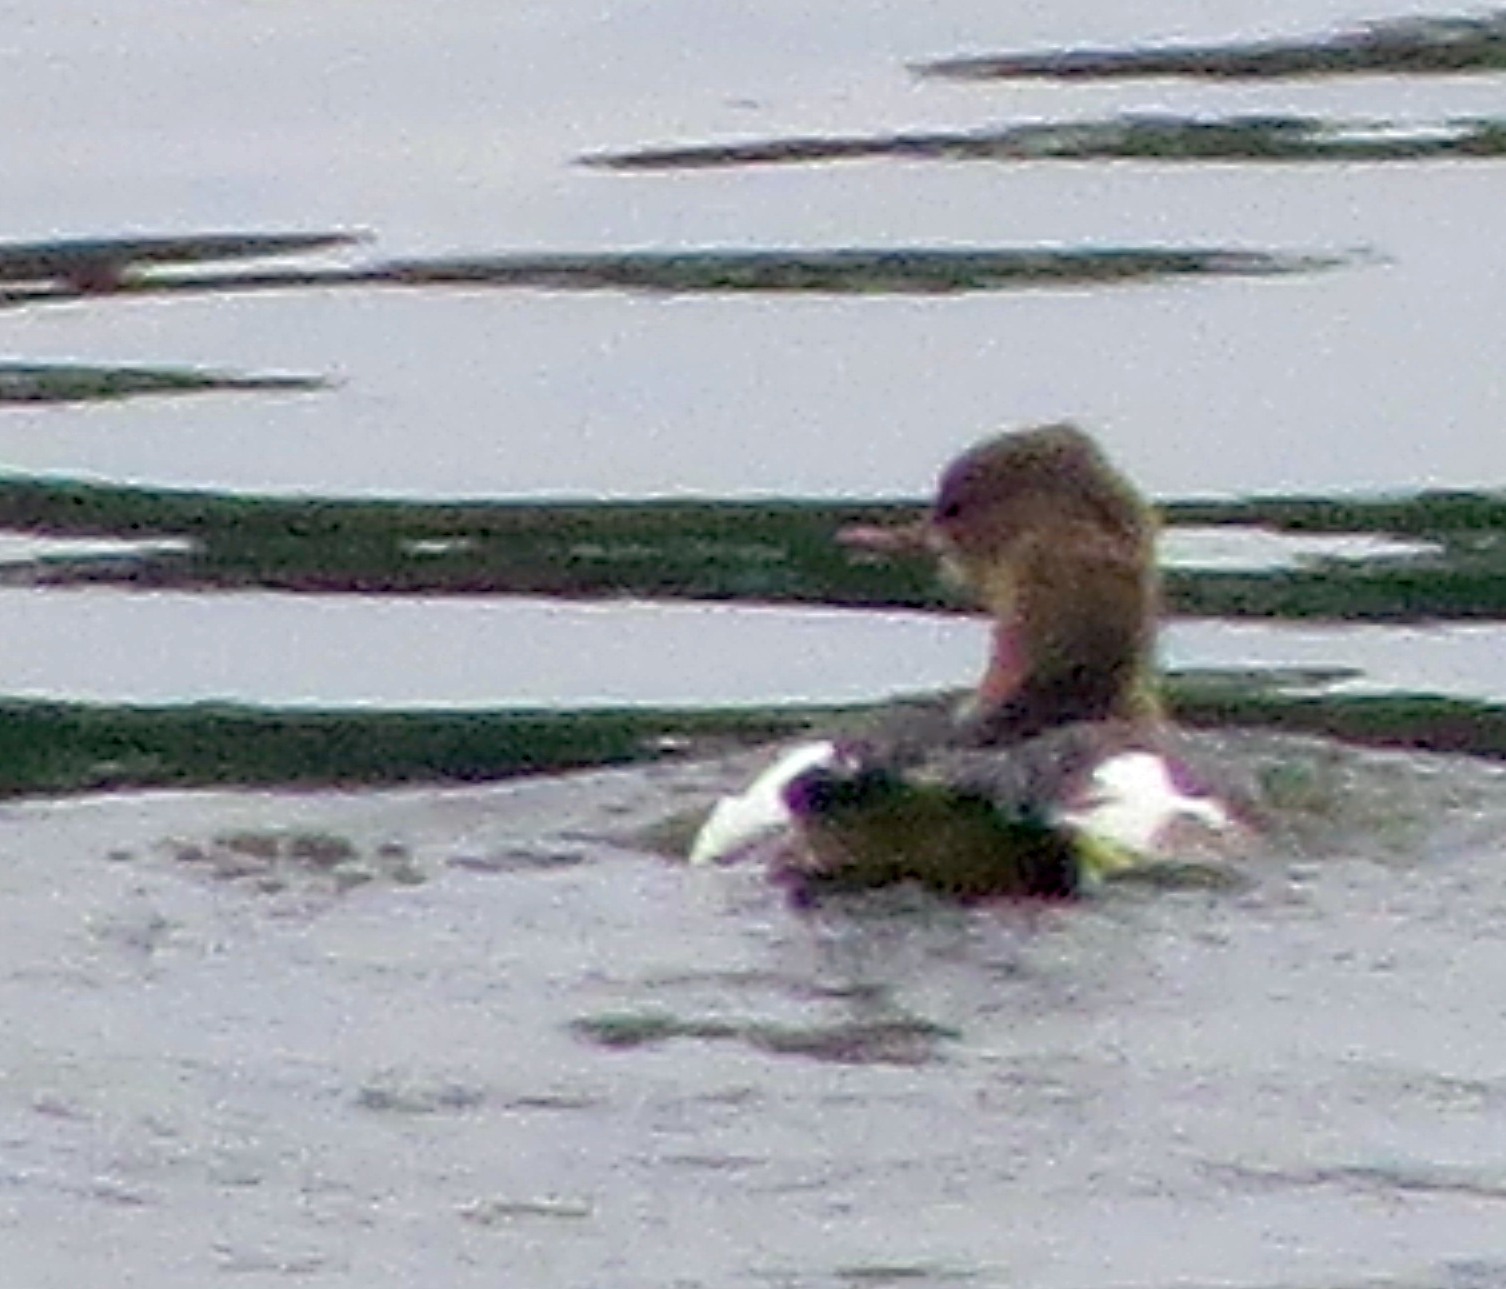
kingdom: Animalia
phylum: Chordata
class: Aves
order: Anseriformes
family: Anatidae
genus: Mergus
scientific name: Mergus merganser
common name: Common merganser
